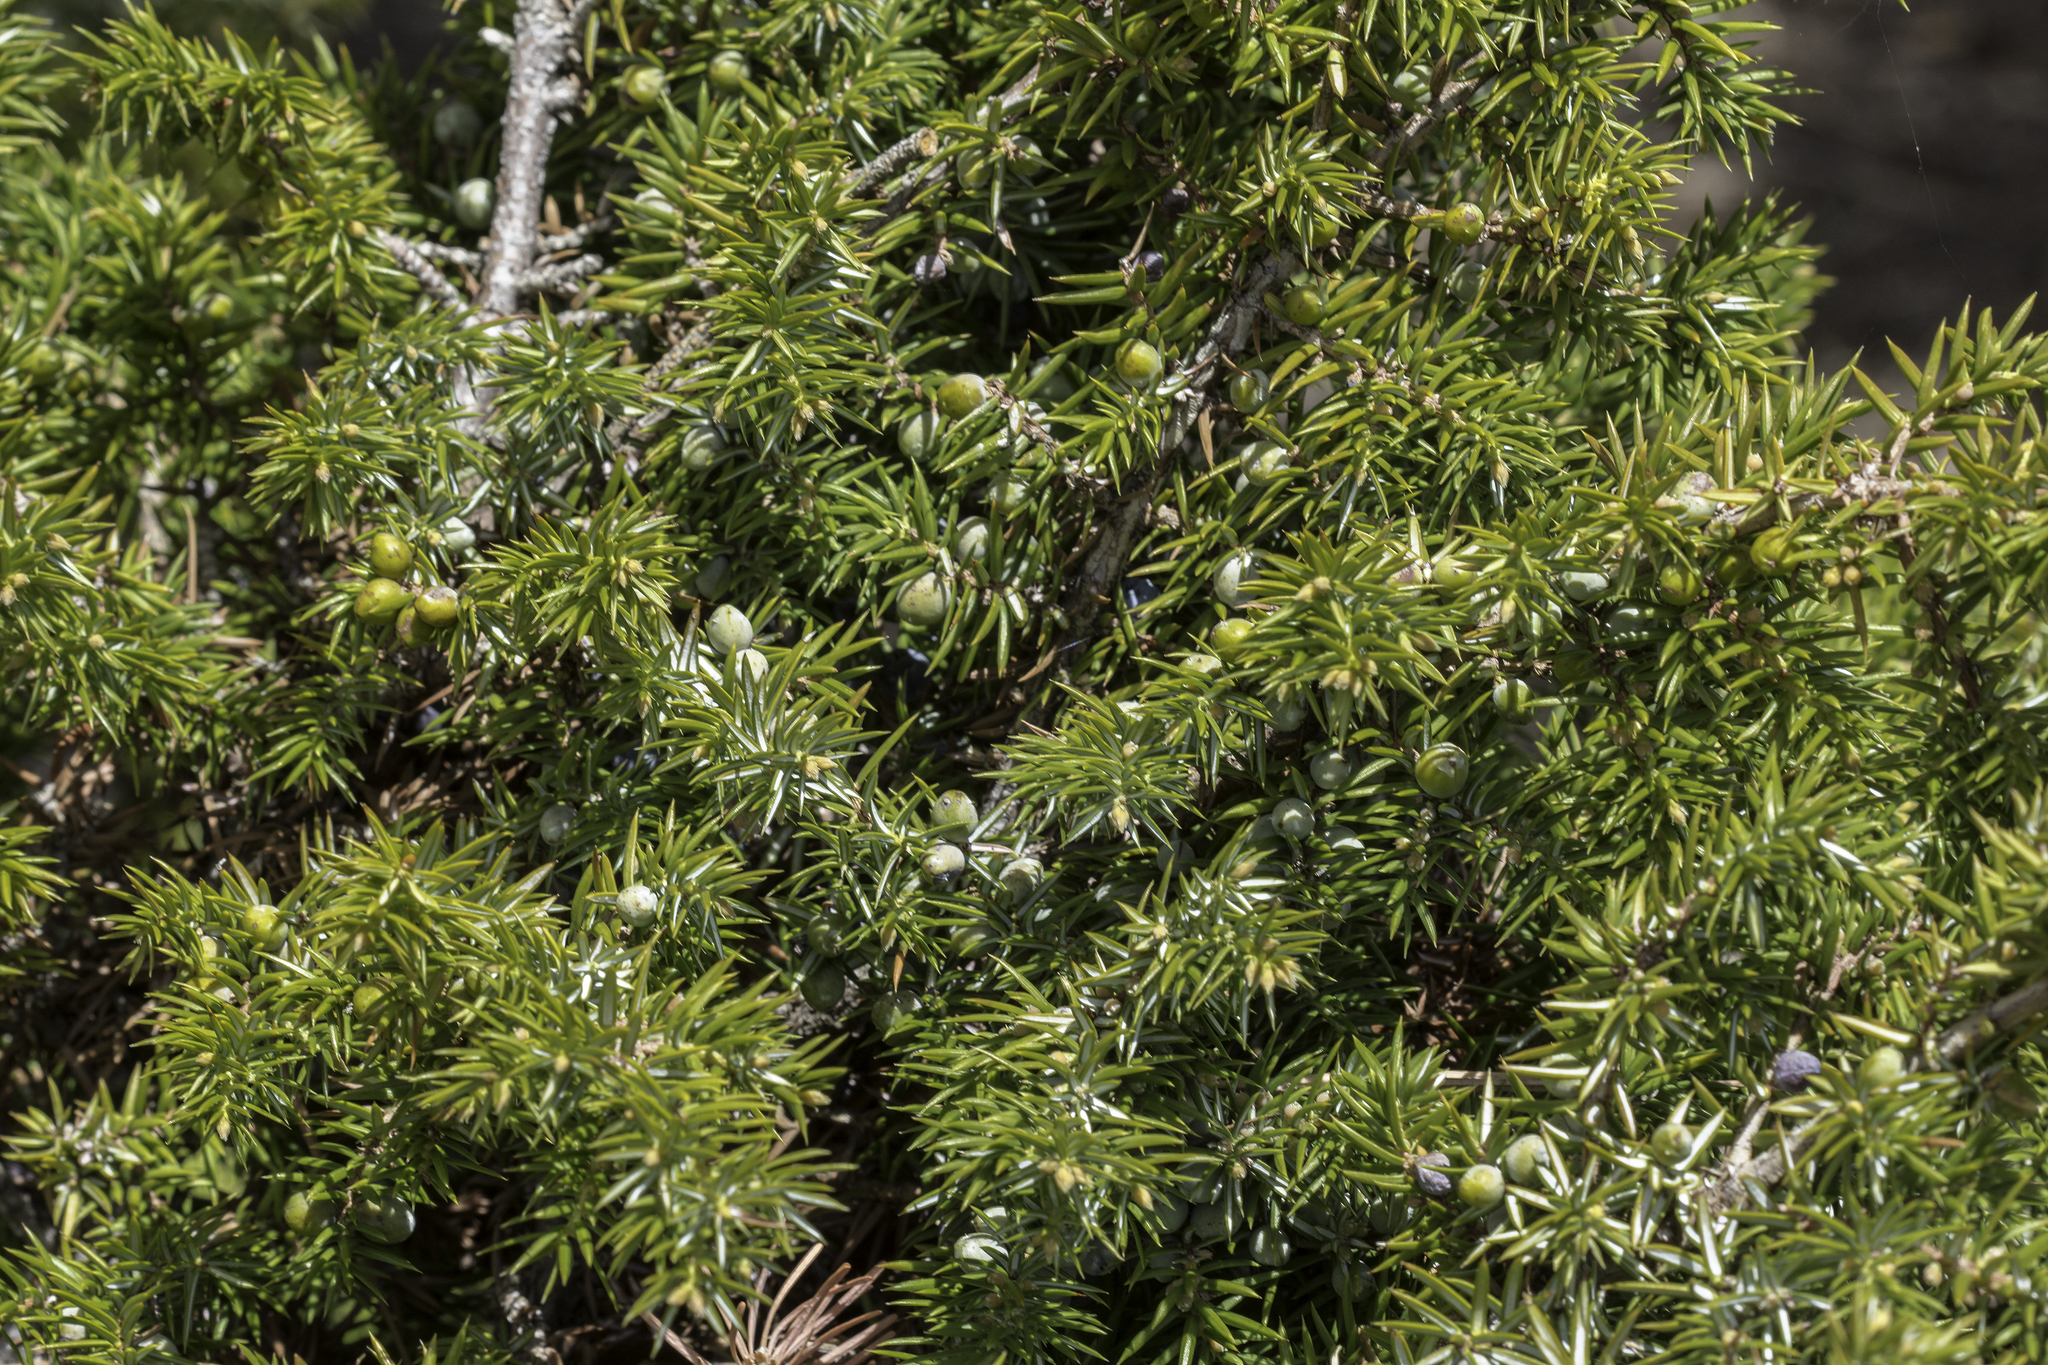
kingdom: Plantae
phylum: Tracheophyta
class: Pinopsida
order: Pinales
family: Cupressaceae
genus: Juniperus
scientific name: Juniperus communis
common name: Common juniper
